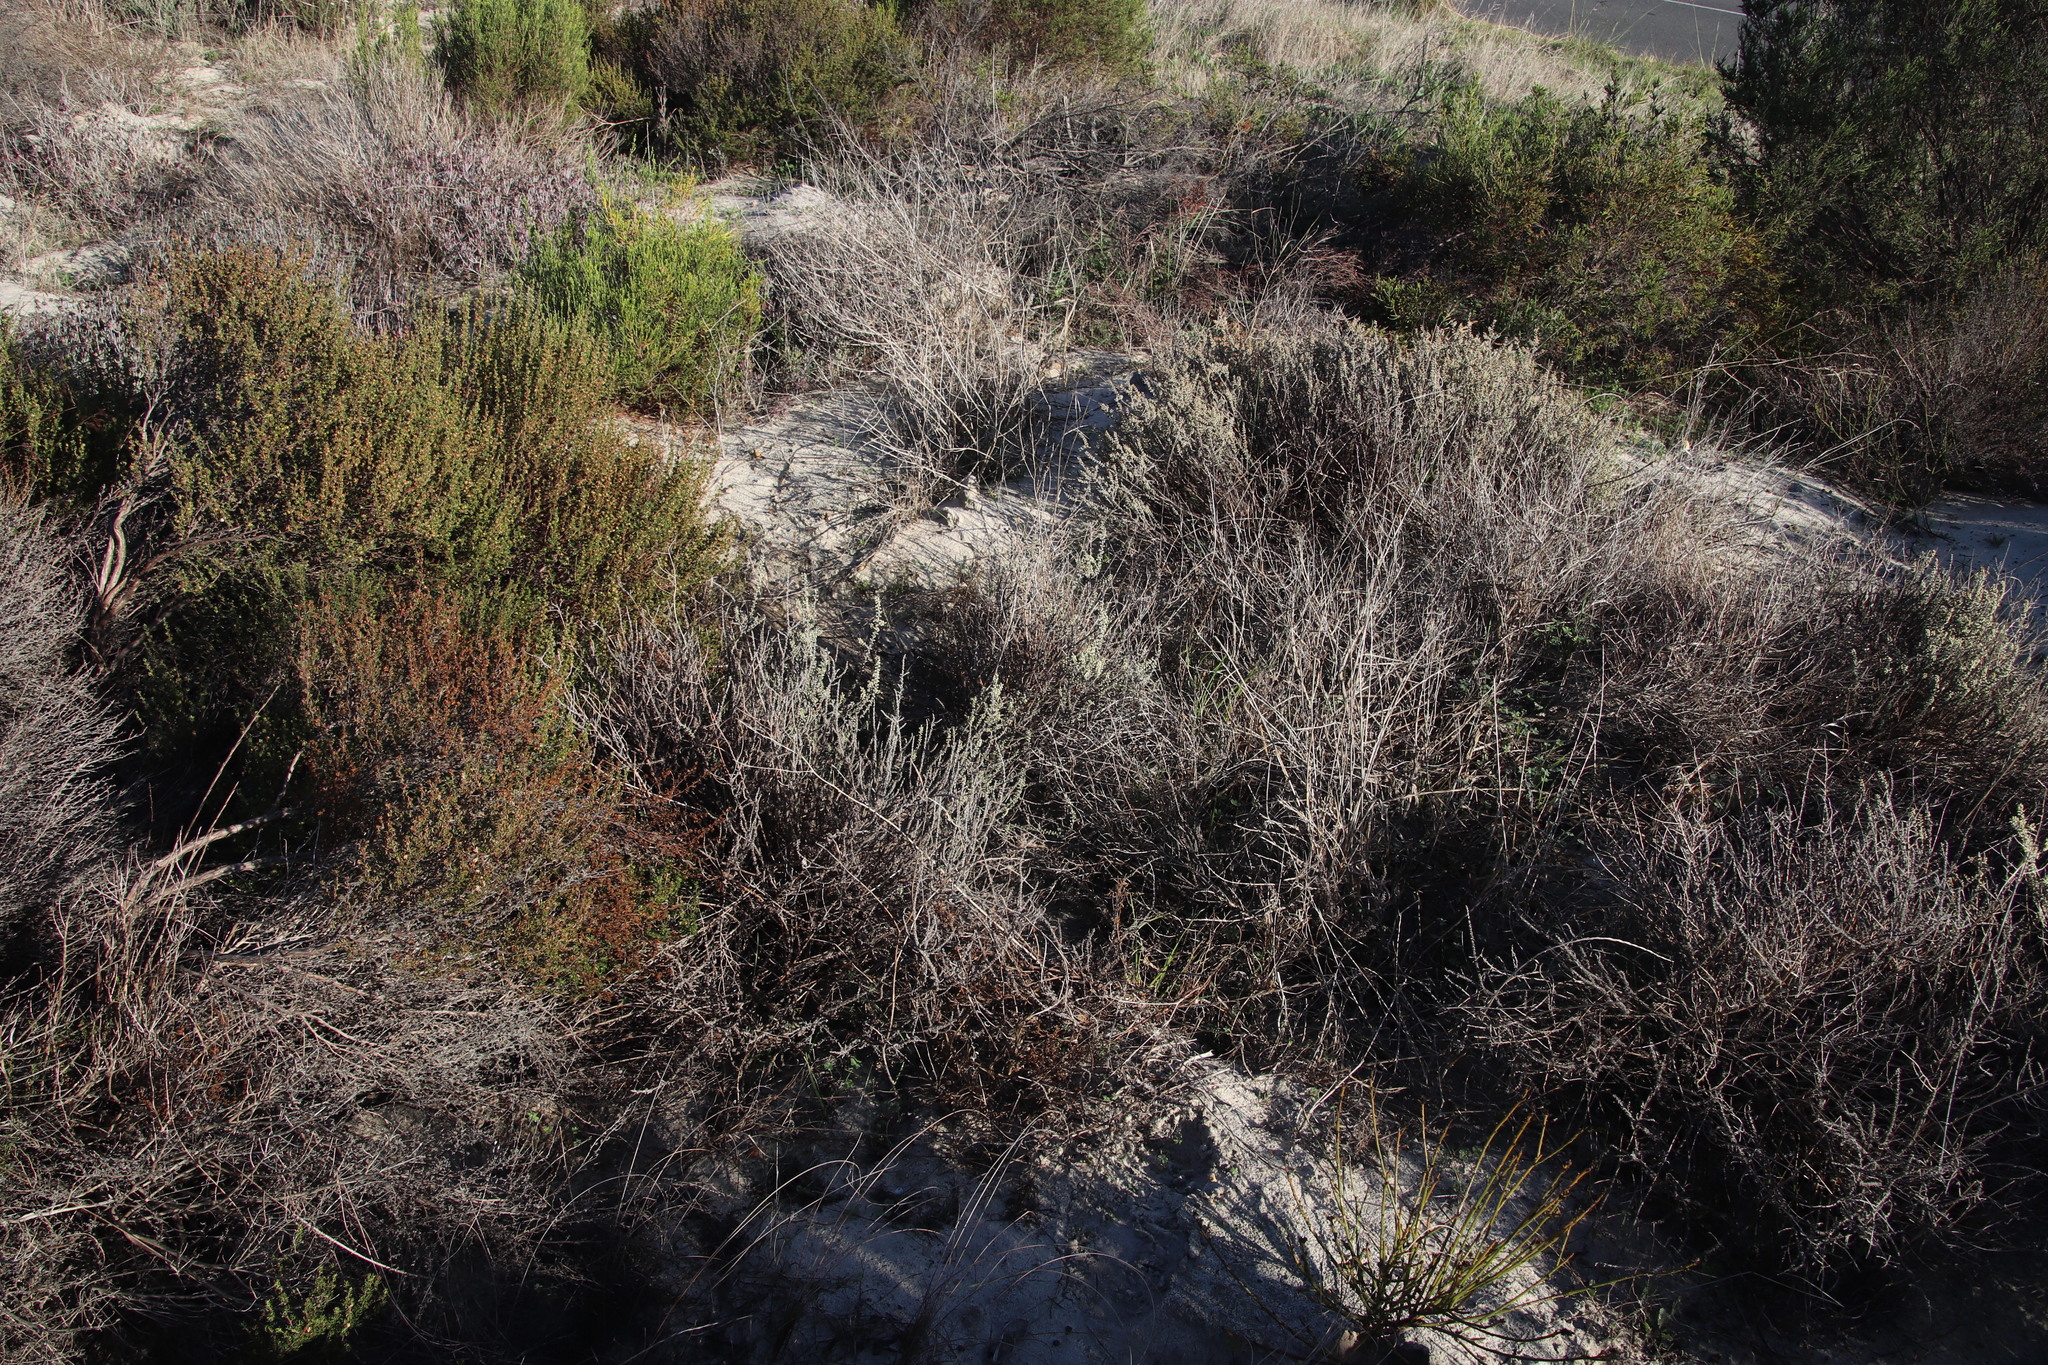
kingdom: Plantae
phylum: Tracheophyta
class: Magnoliopsida
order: Asterales
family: Asteraceae
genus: Ifloga
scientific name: Ifloga ambigua
